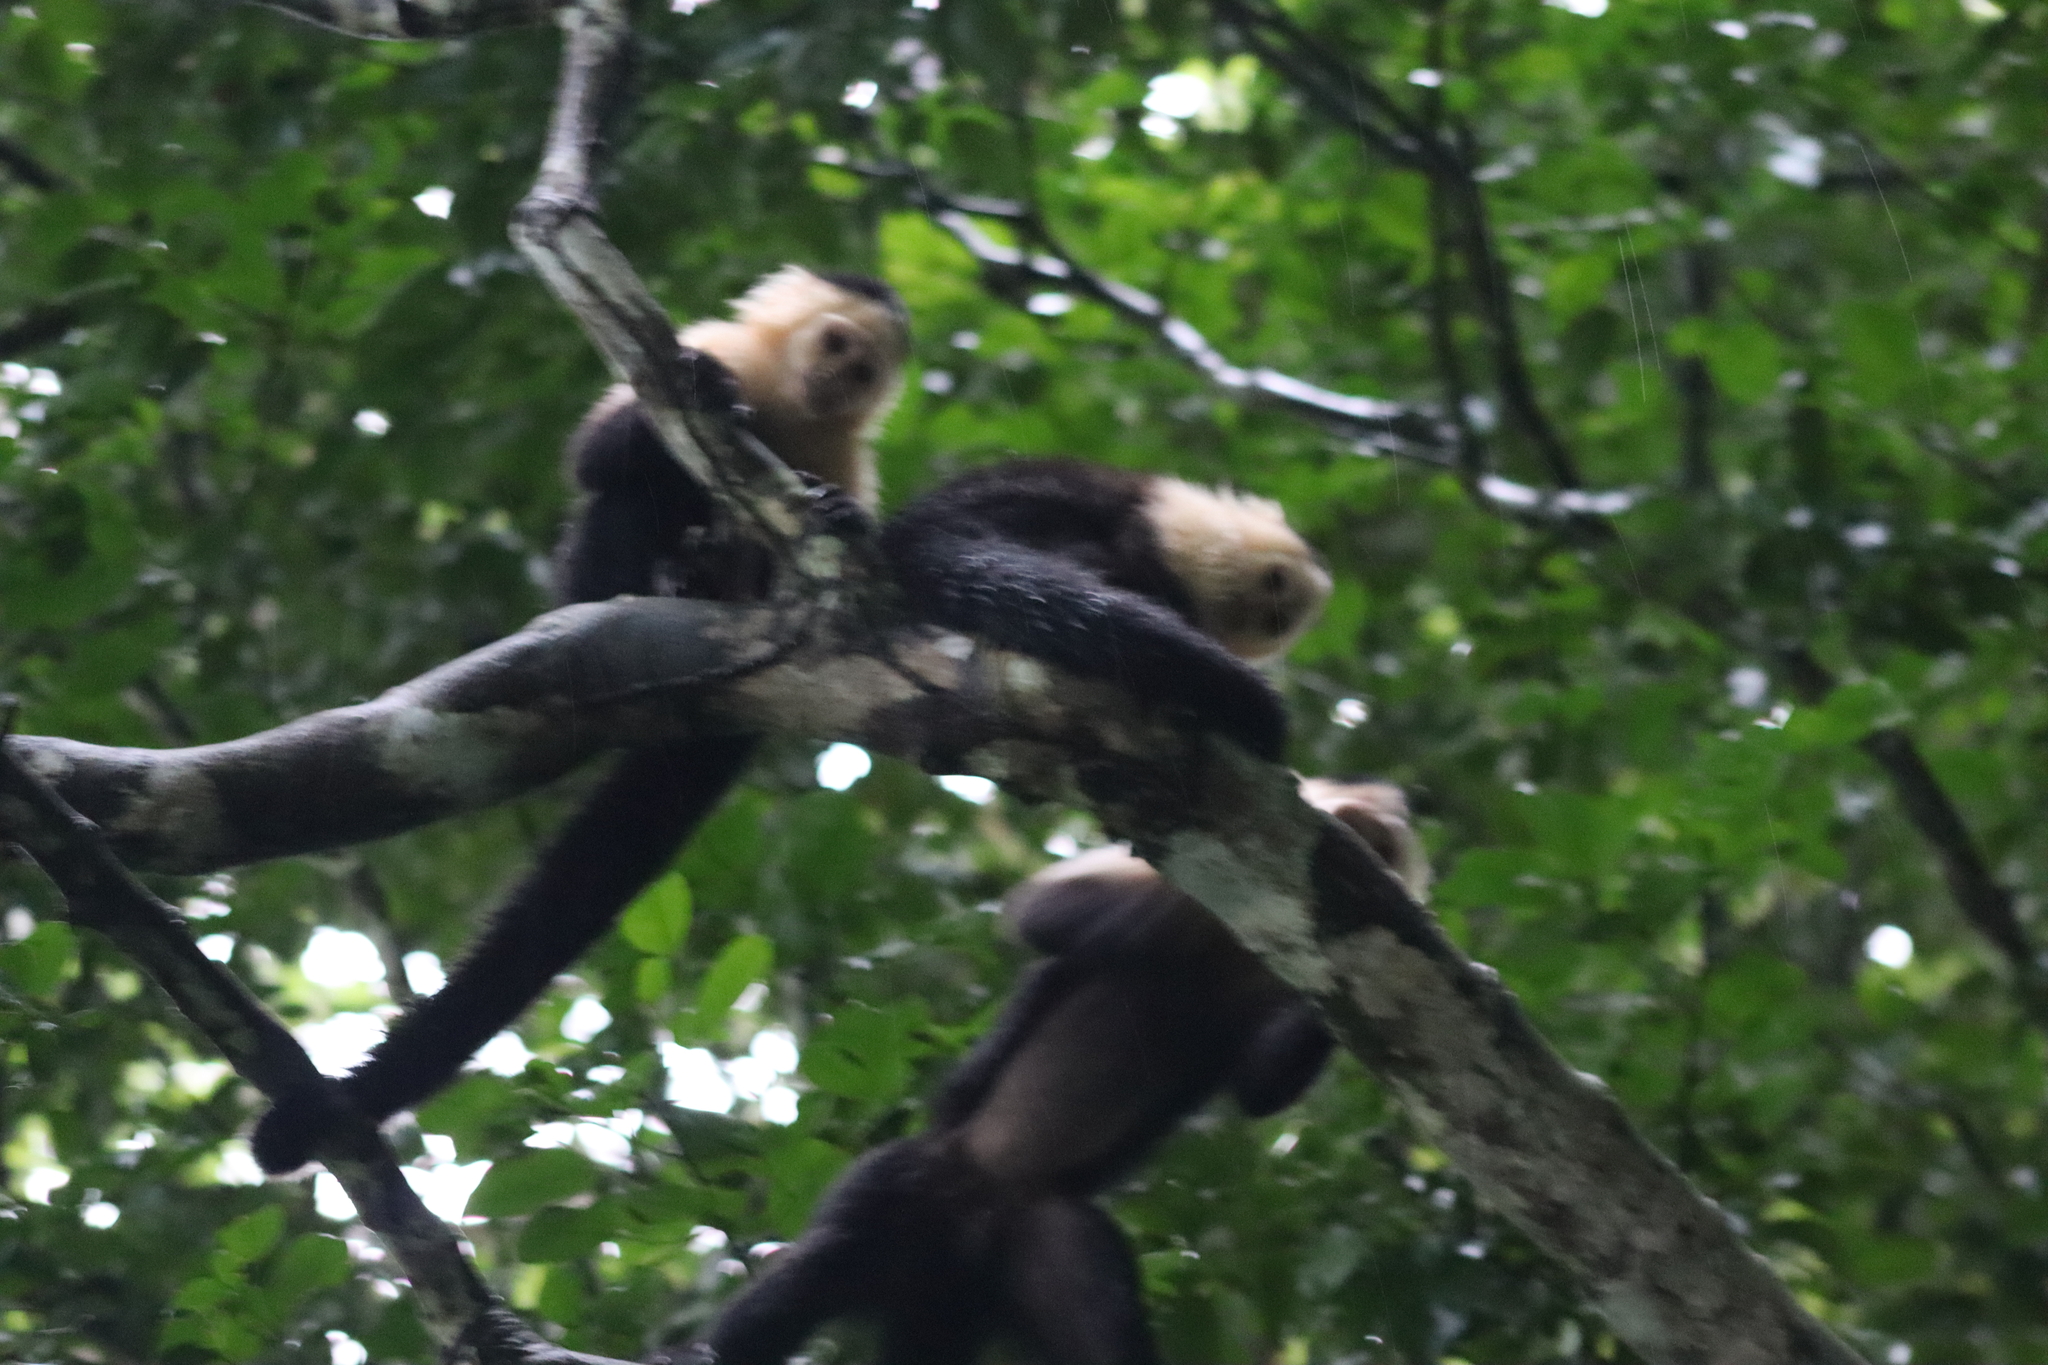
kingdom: Animalia
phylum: Chordata
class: Mammalia
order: Primates
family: Cebidae
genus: Cebus
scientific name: Cebus capucinus
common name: White-headed capuchin
